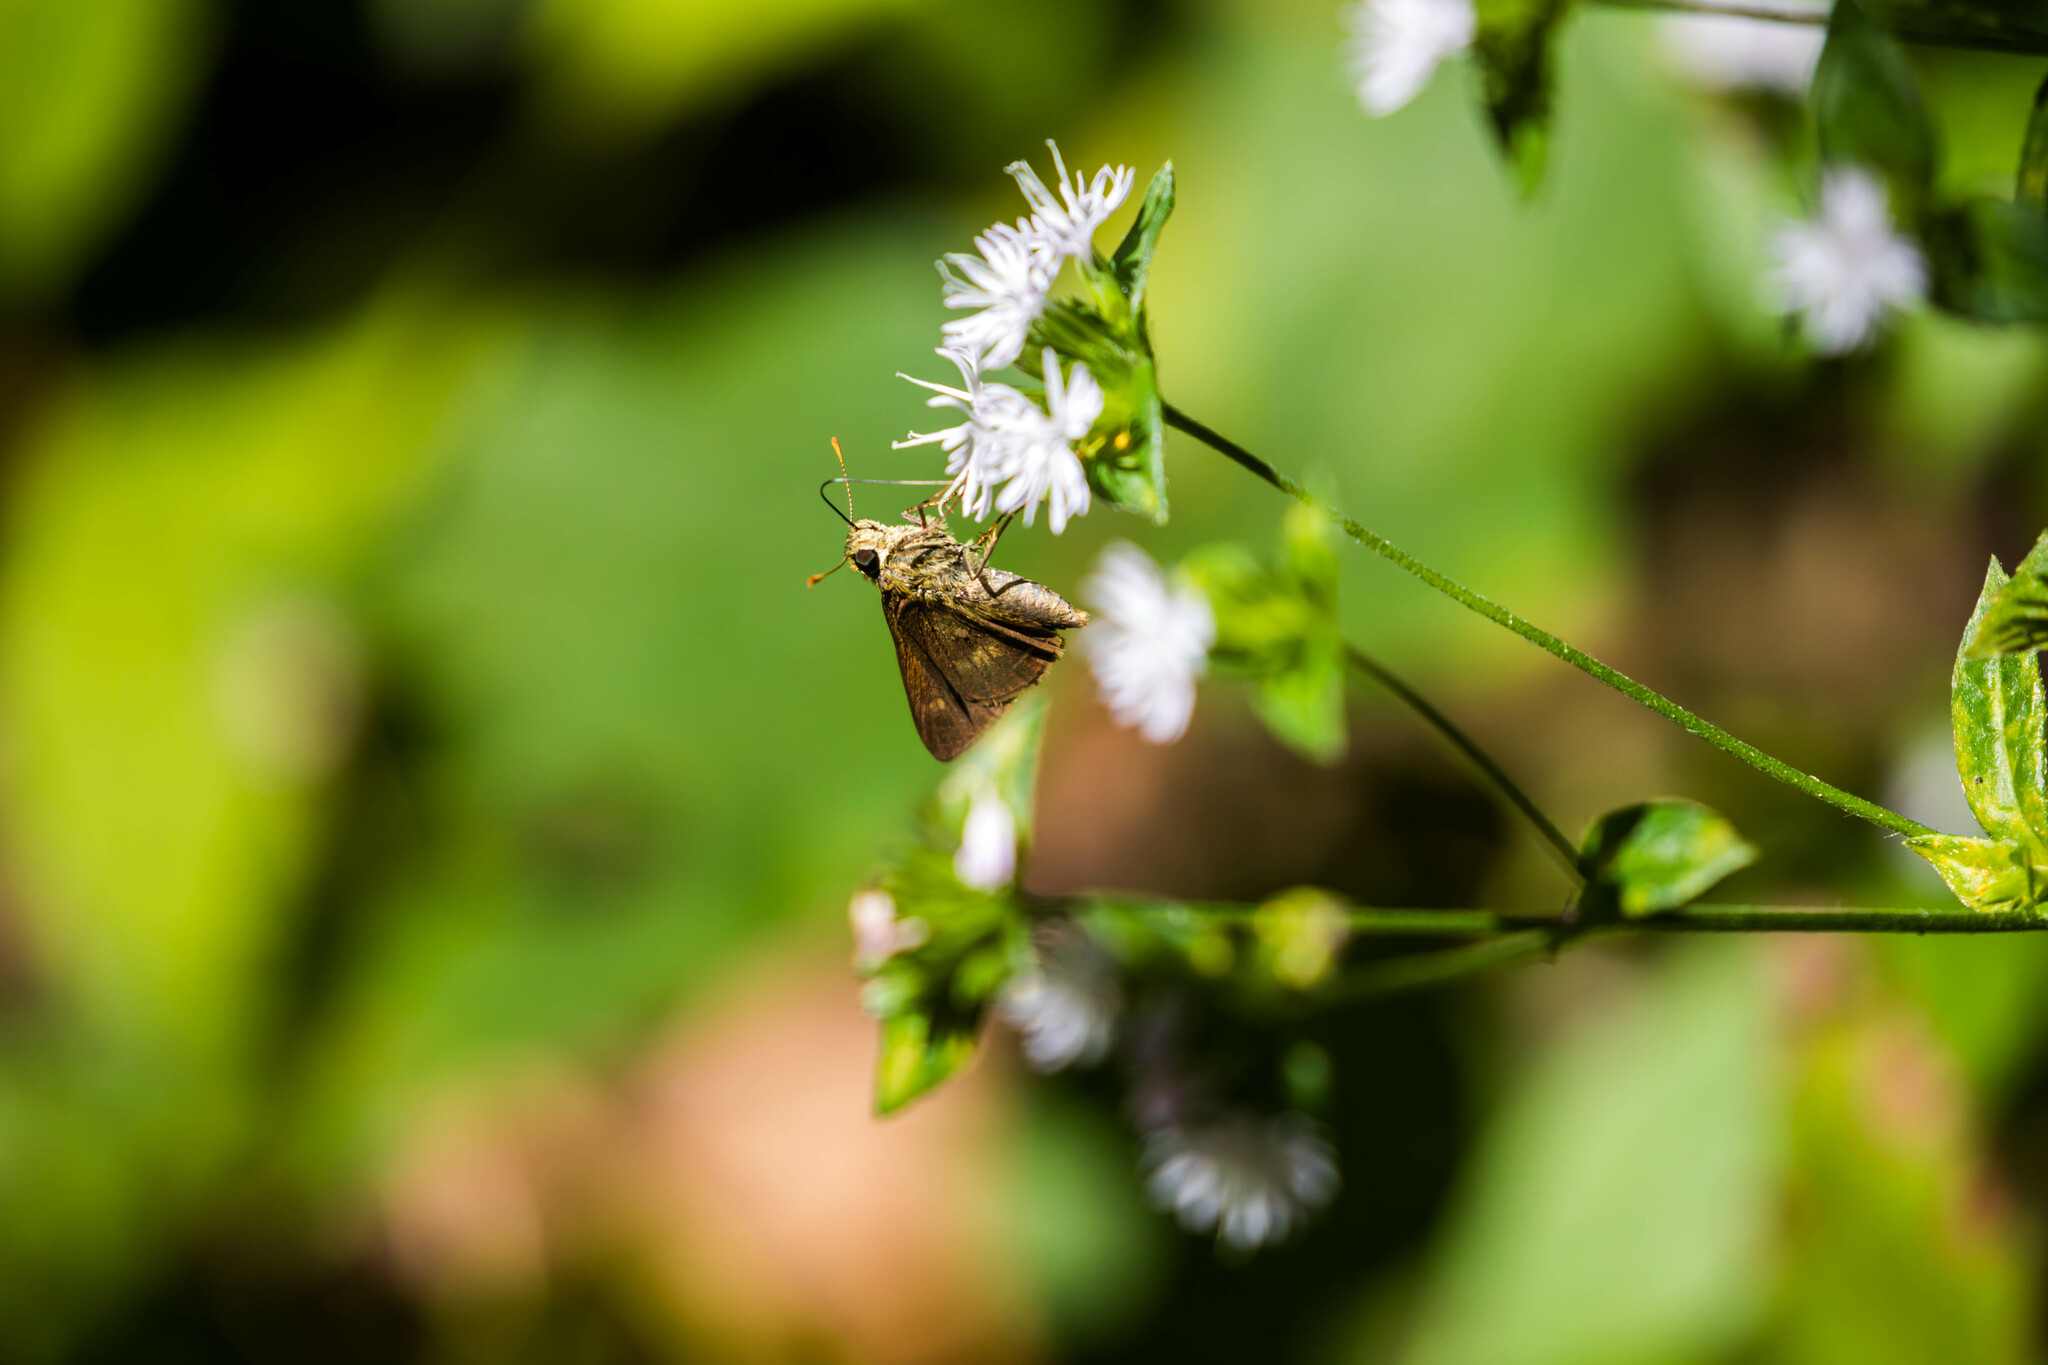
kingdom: Animalia
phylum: Arthropoda
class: Insecta
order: Lepidoptera
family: Hesperiidae
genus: Polites
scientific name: Polites egeremet
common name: Northern broken-dash
